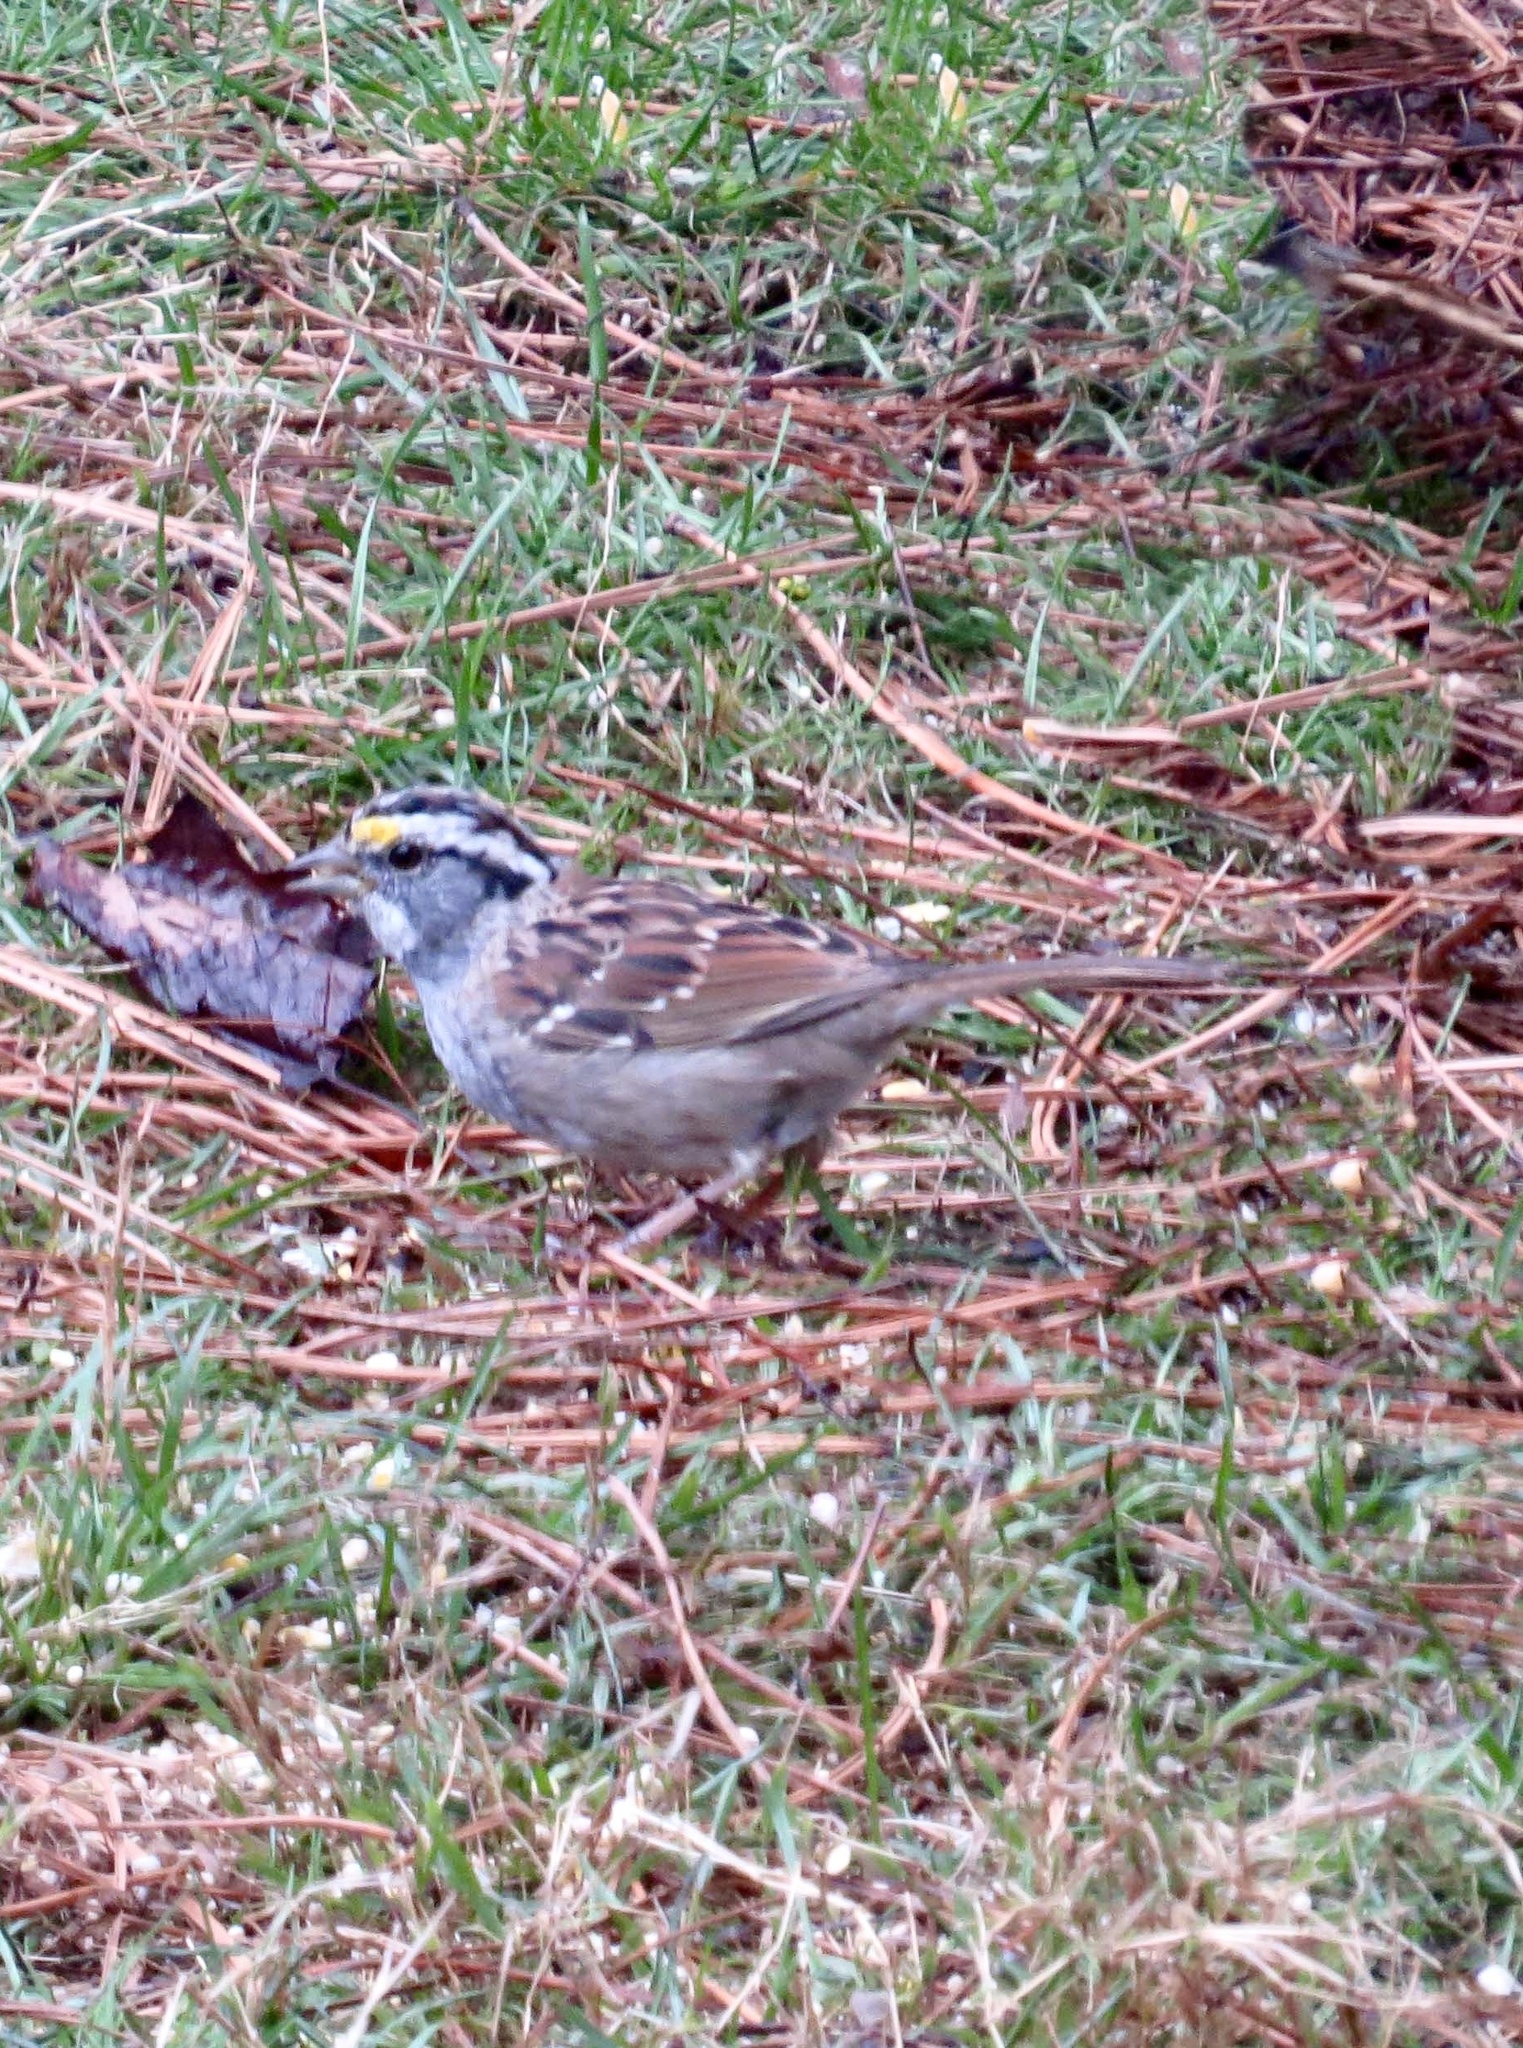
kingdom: Animalia
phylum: Chordata
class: Aves
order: Passeriformes
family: Passerellidae
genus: Zonotrichia
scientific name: Zonotrichia albicollis
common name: White-throated sparrow
